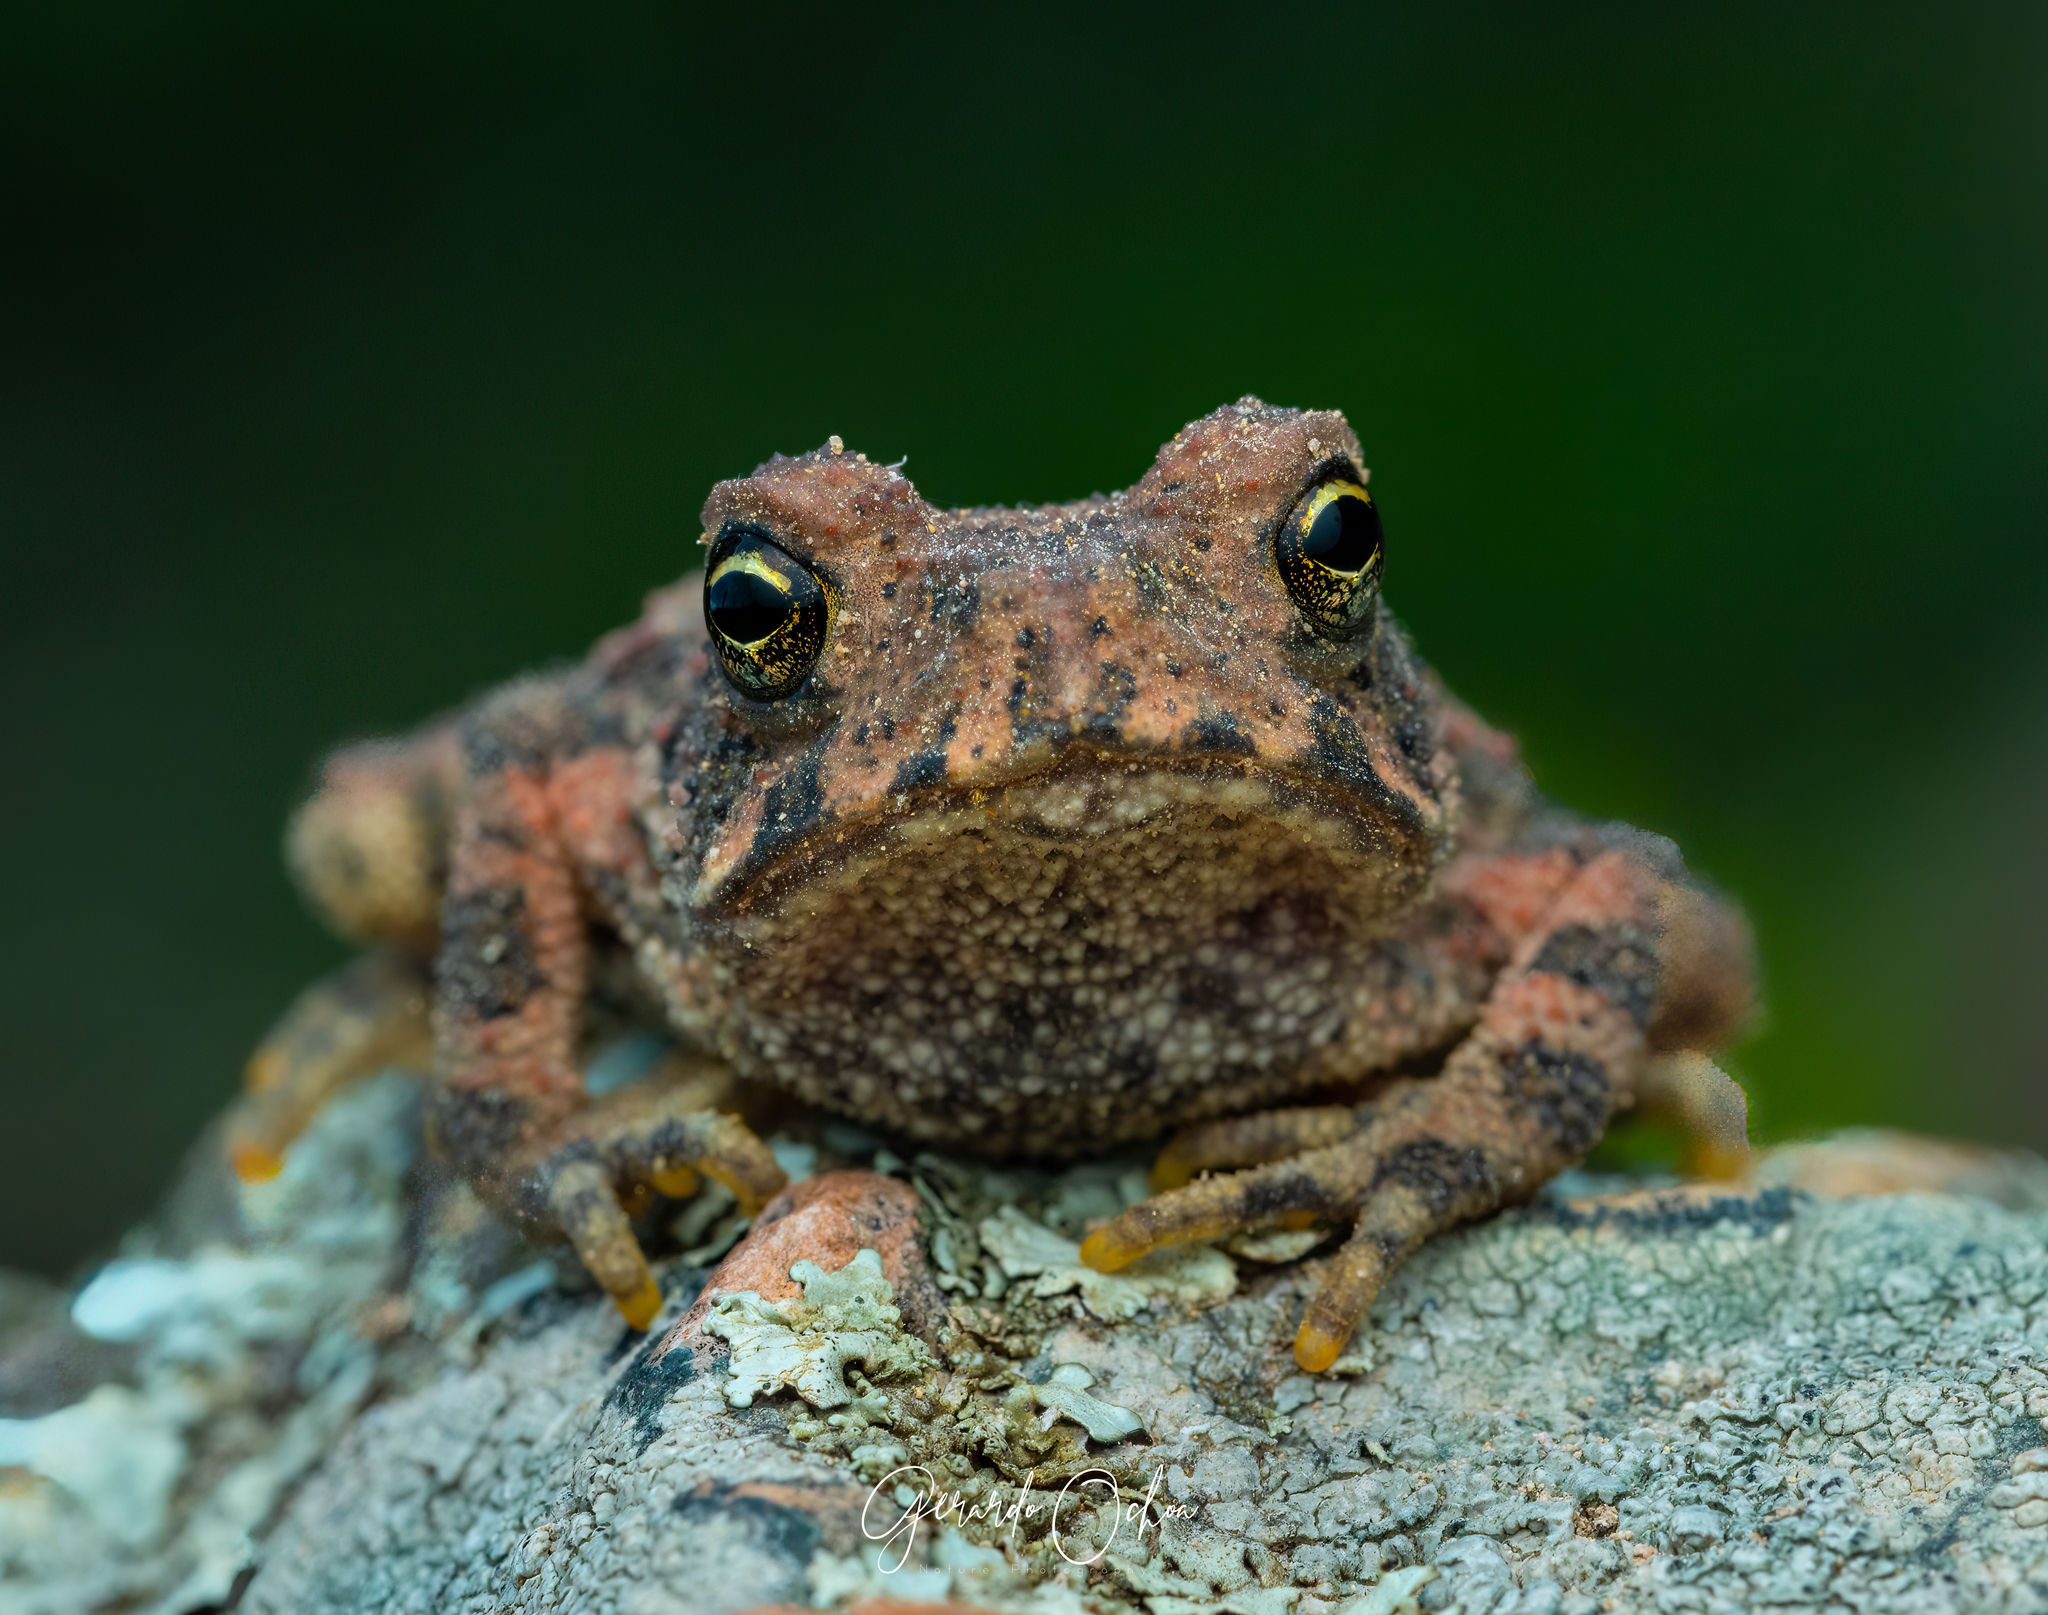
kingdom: Animalia
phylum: Chordata
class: Amphibia
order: Anura
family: Bufonidae
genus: Incilius
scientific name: Incilius occidentalis
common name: Pine toad
